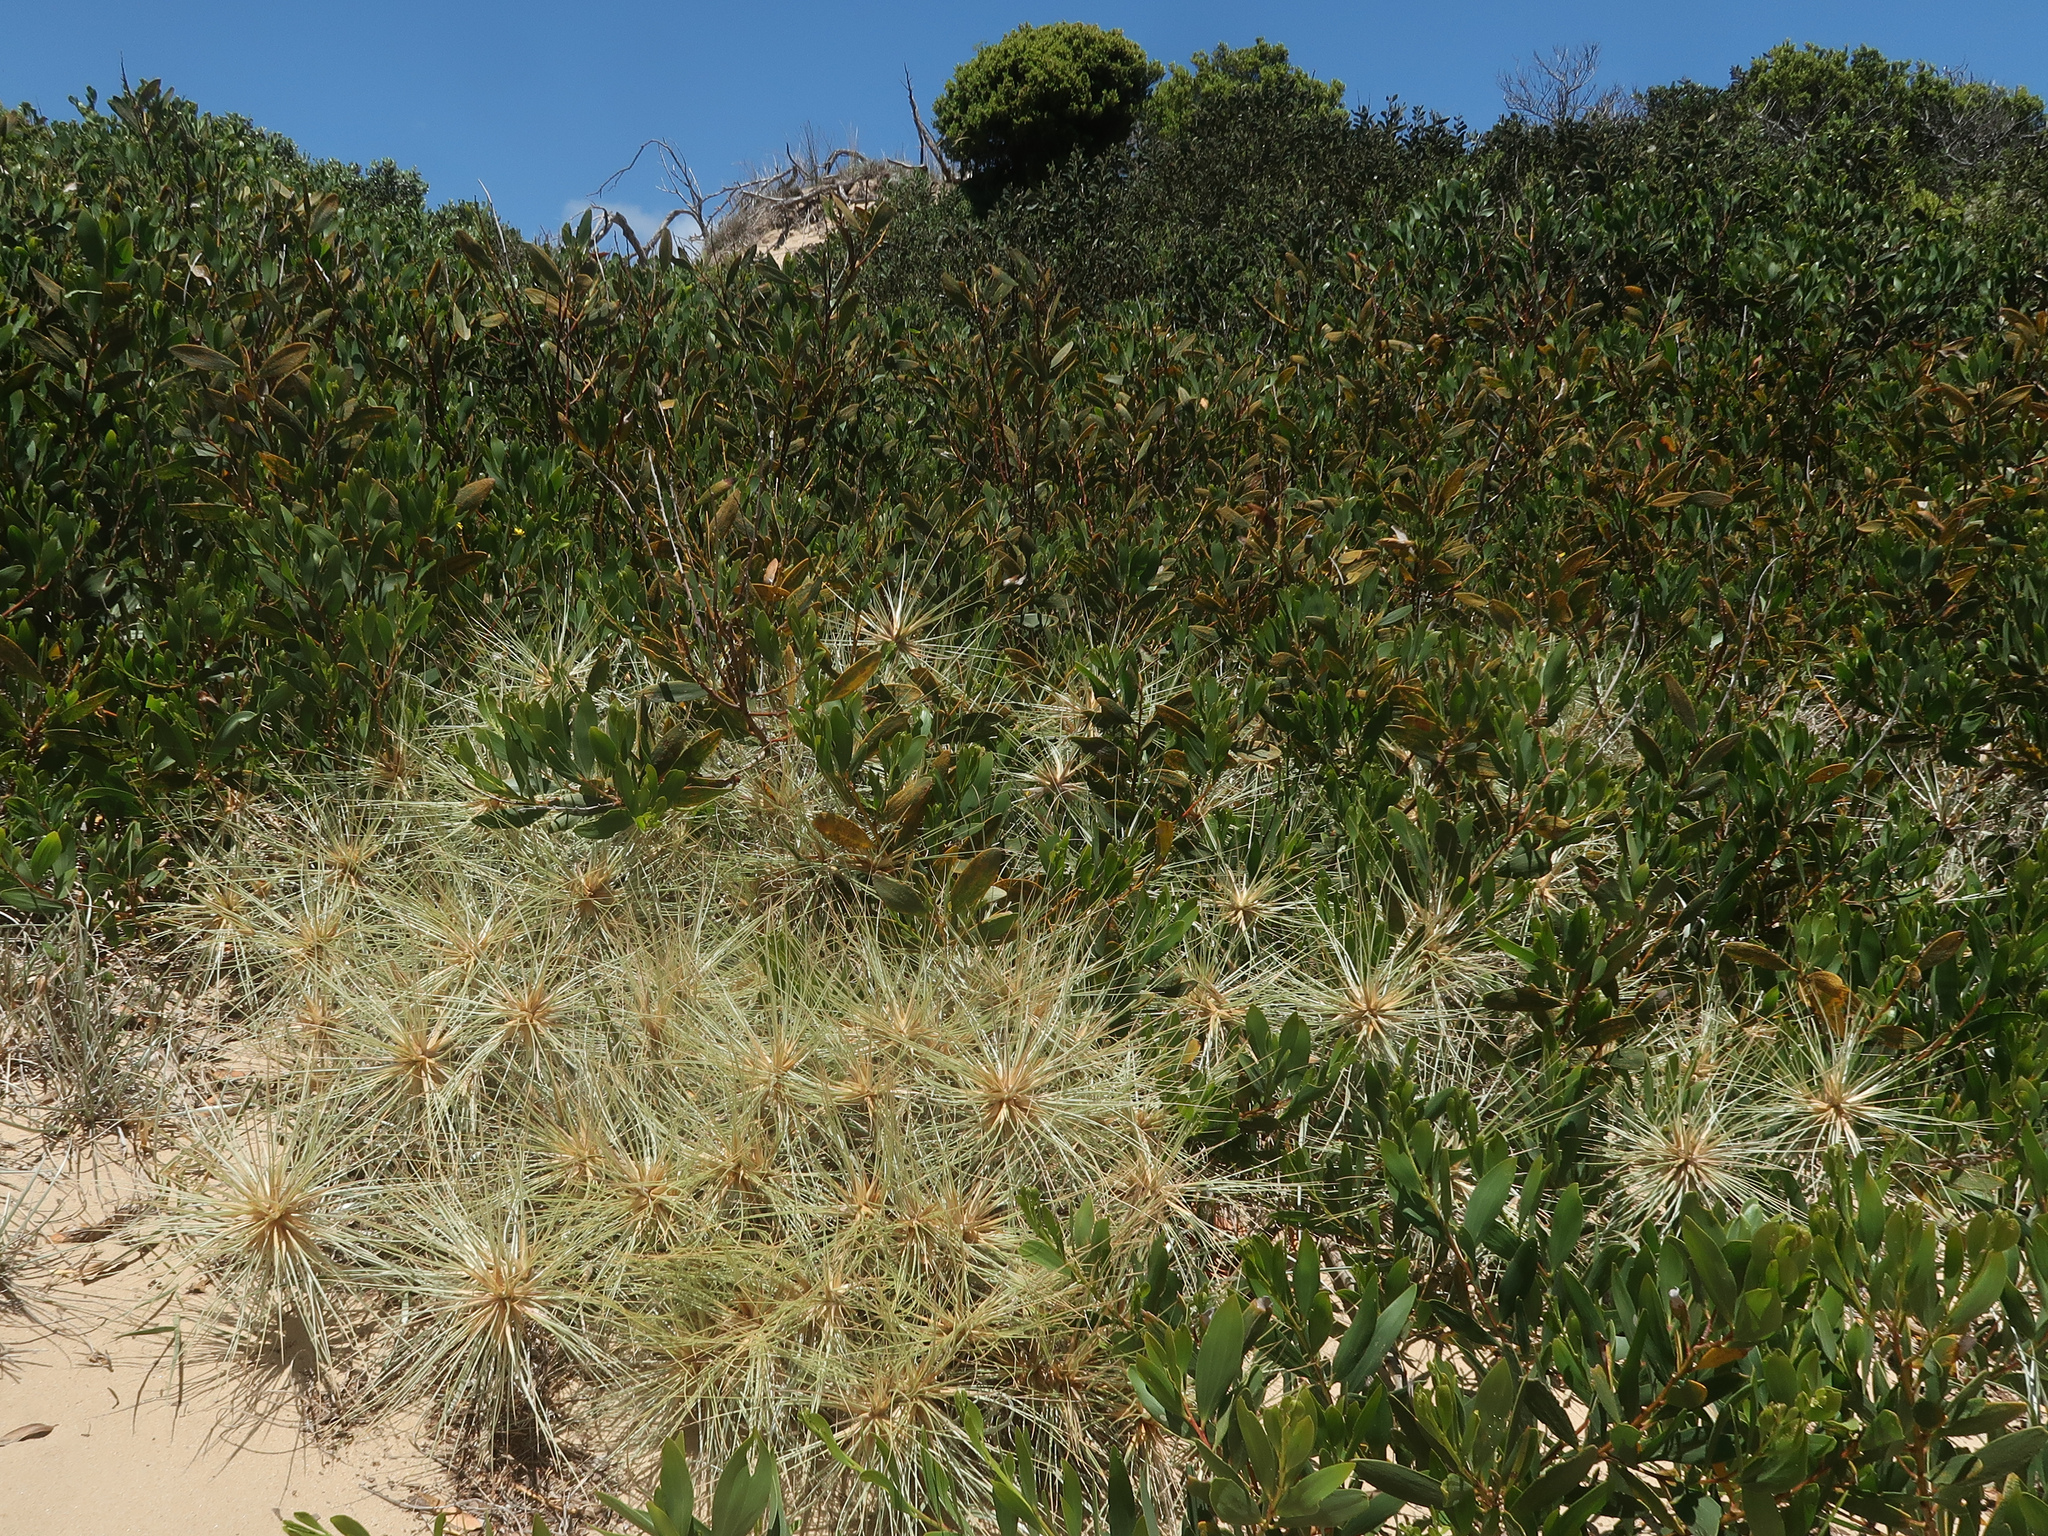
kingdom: Plantae
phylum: Tracheophyta
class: Liliopsida
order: Poales
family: Poaceae
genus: Spinifex
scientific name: Spinifex sericeus
